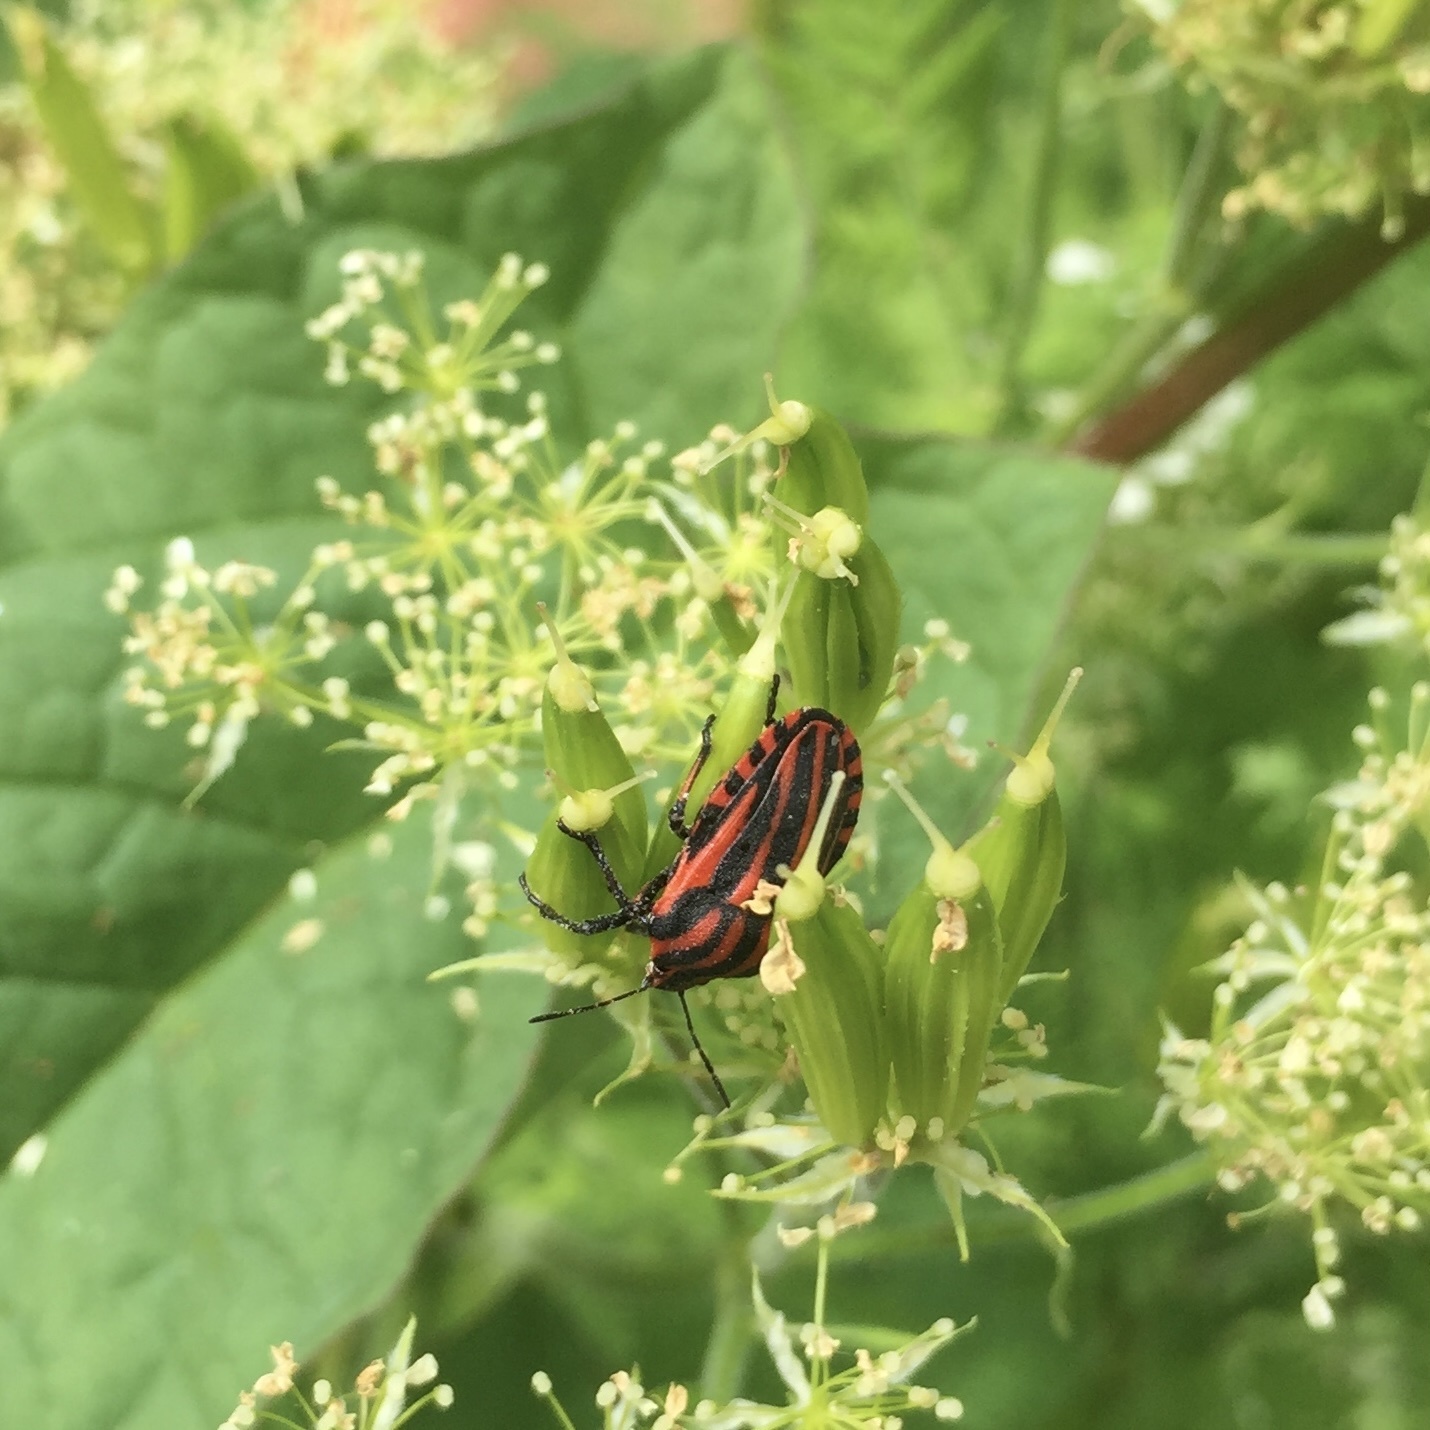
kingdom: Animalia
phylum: Arthropoda
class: Insecta
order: Hemiptera
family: Pentatomidae
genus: Graphosoma
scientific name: Graphosoma italicum
